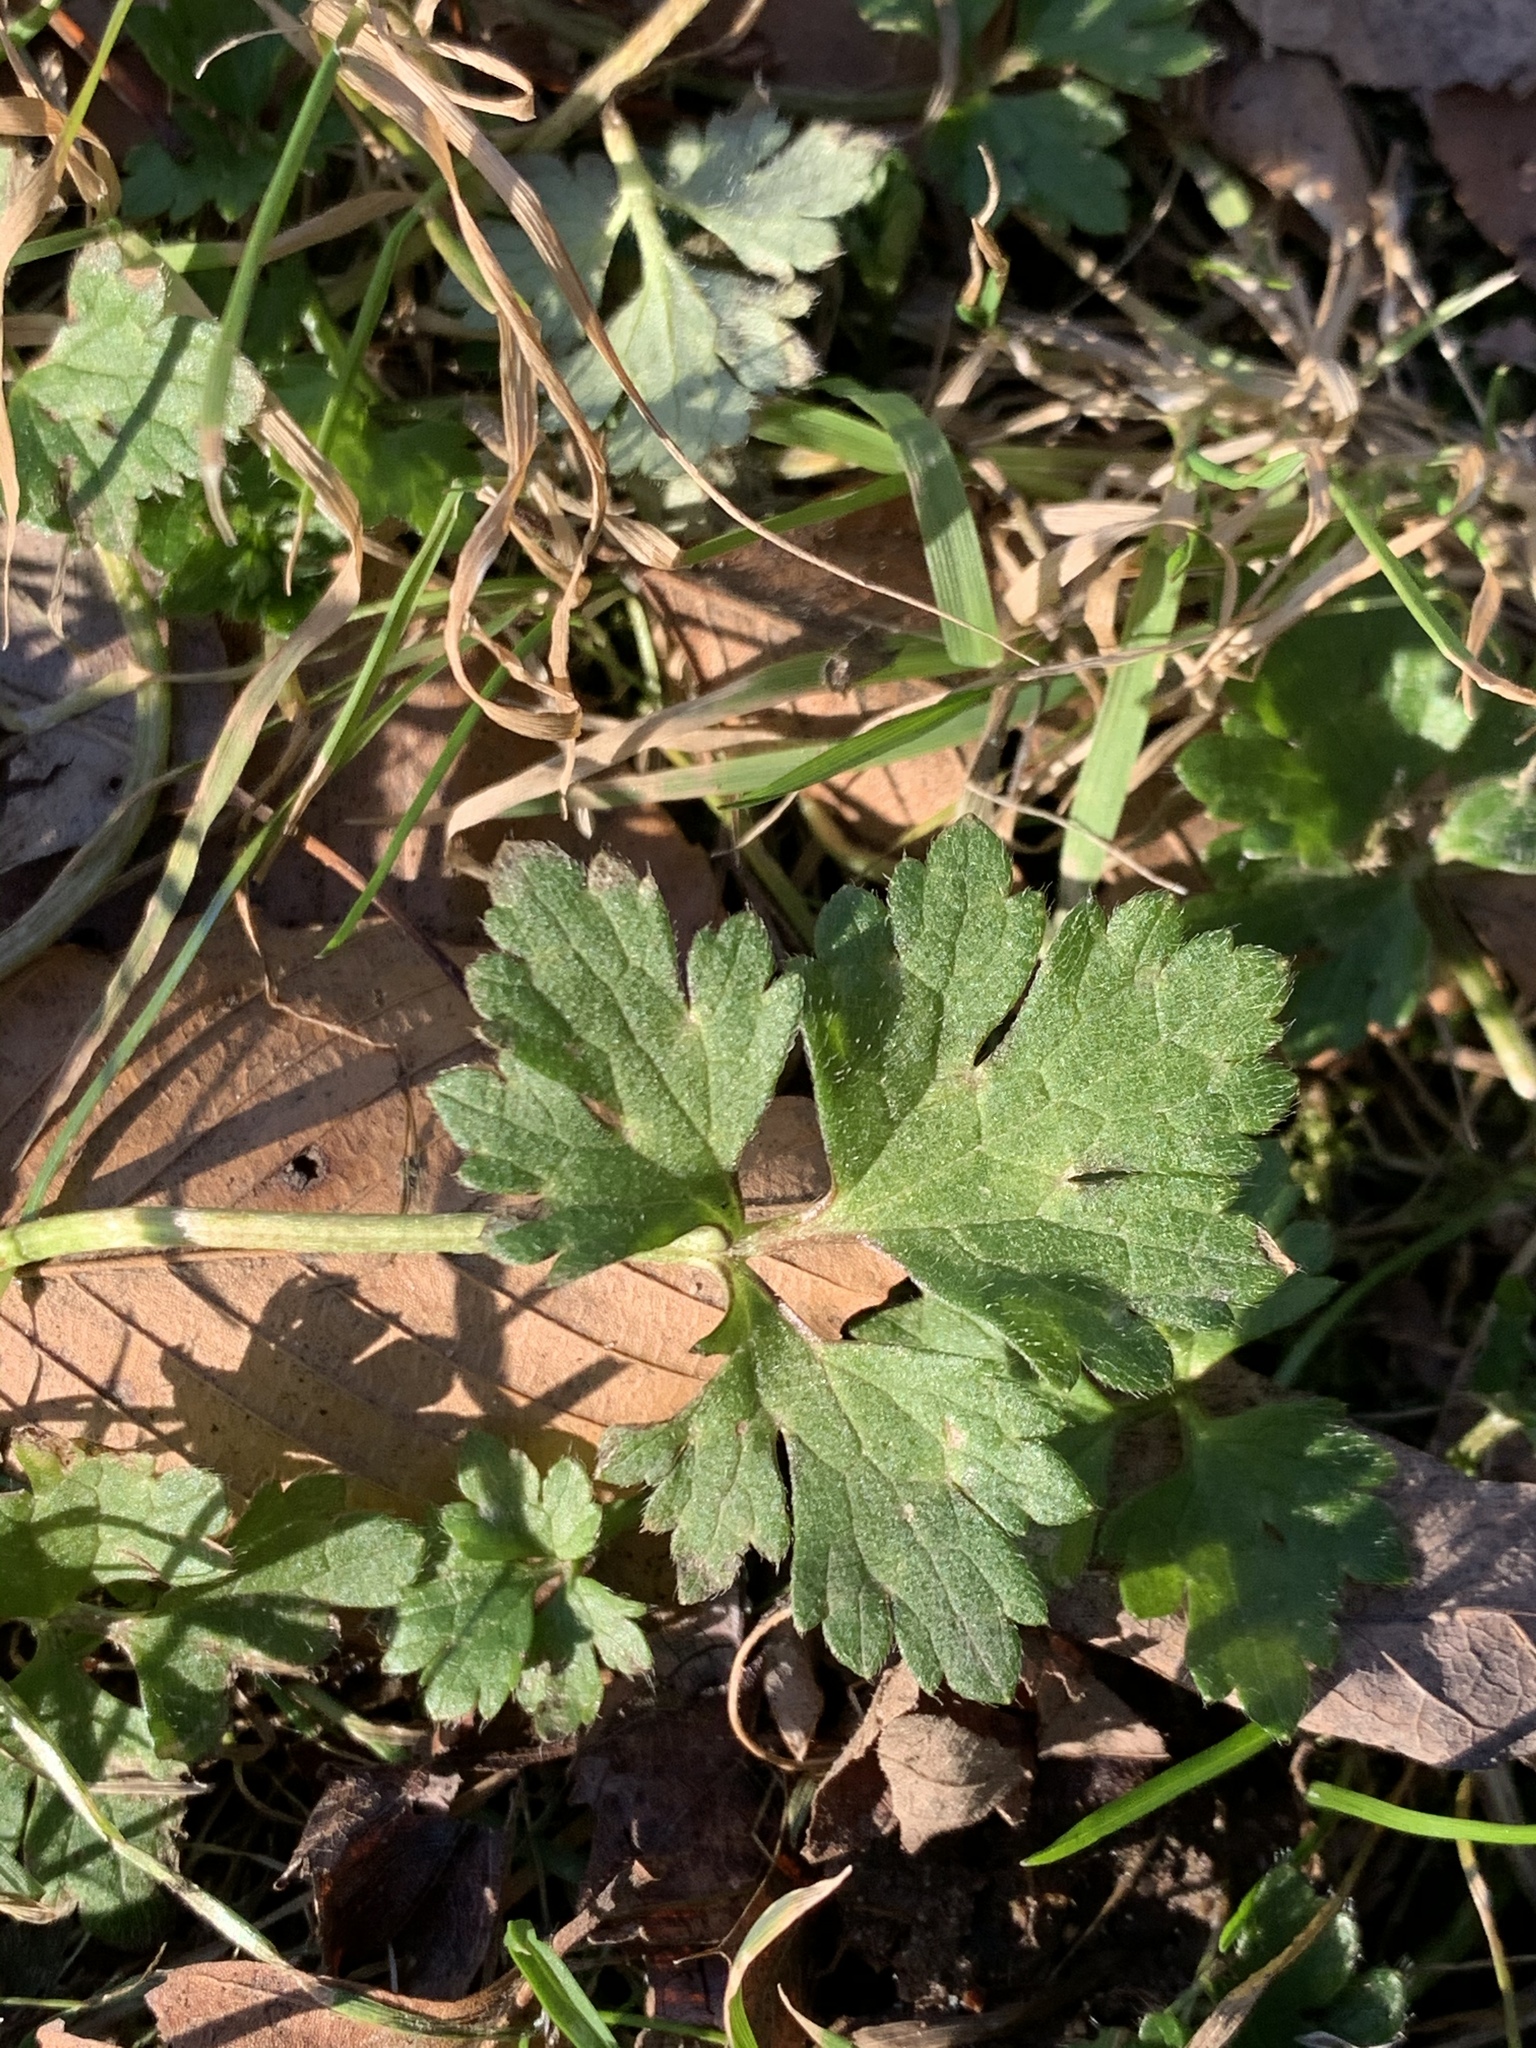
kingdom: Plantae
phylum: Tracheophyta
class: Magnoliopsida
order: Ranunculales
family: Ranunculaceae
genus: Ranunculus
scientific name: Ranunculus repens
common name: Creeping buttercup
